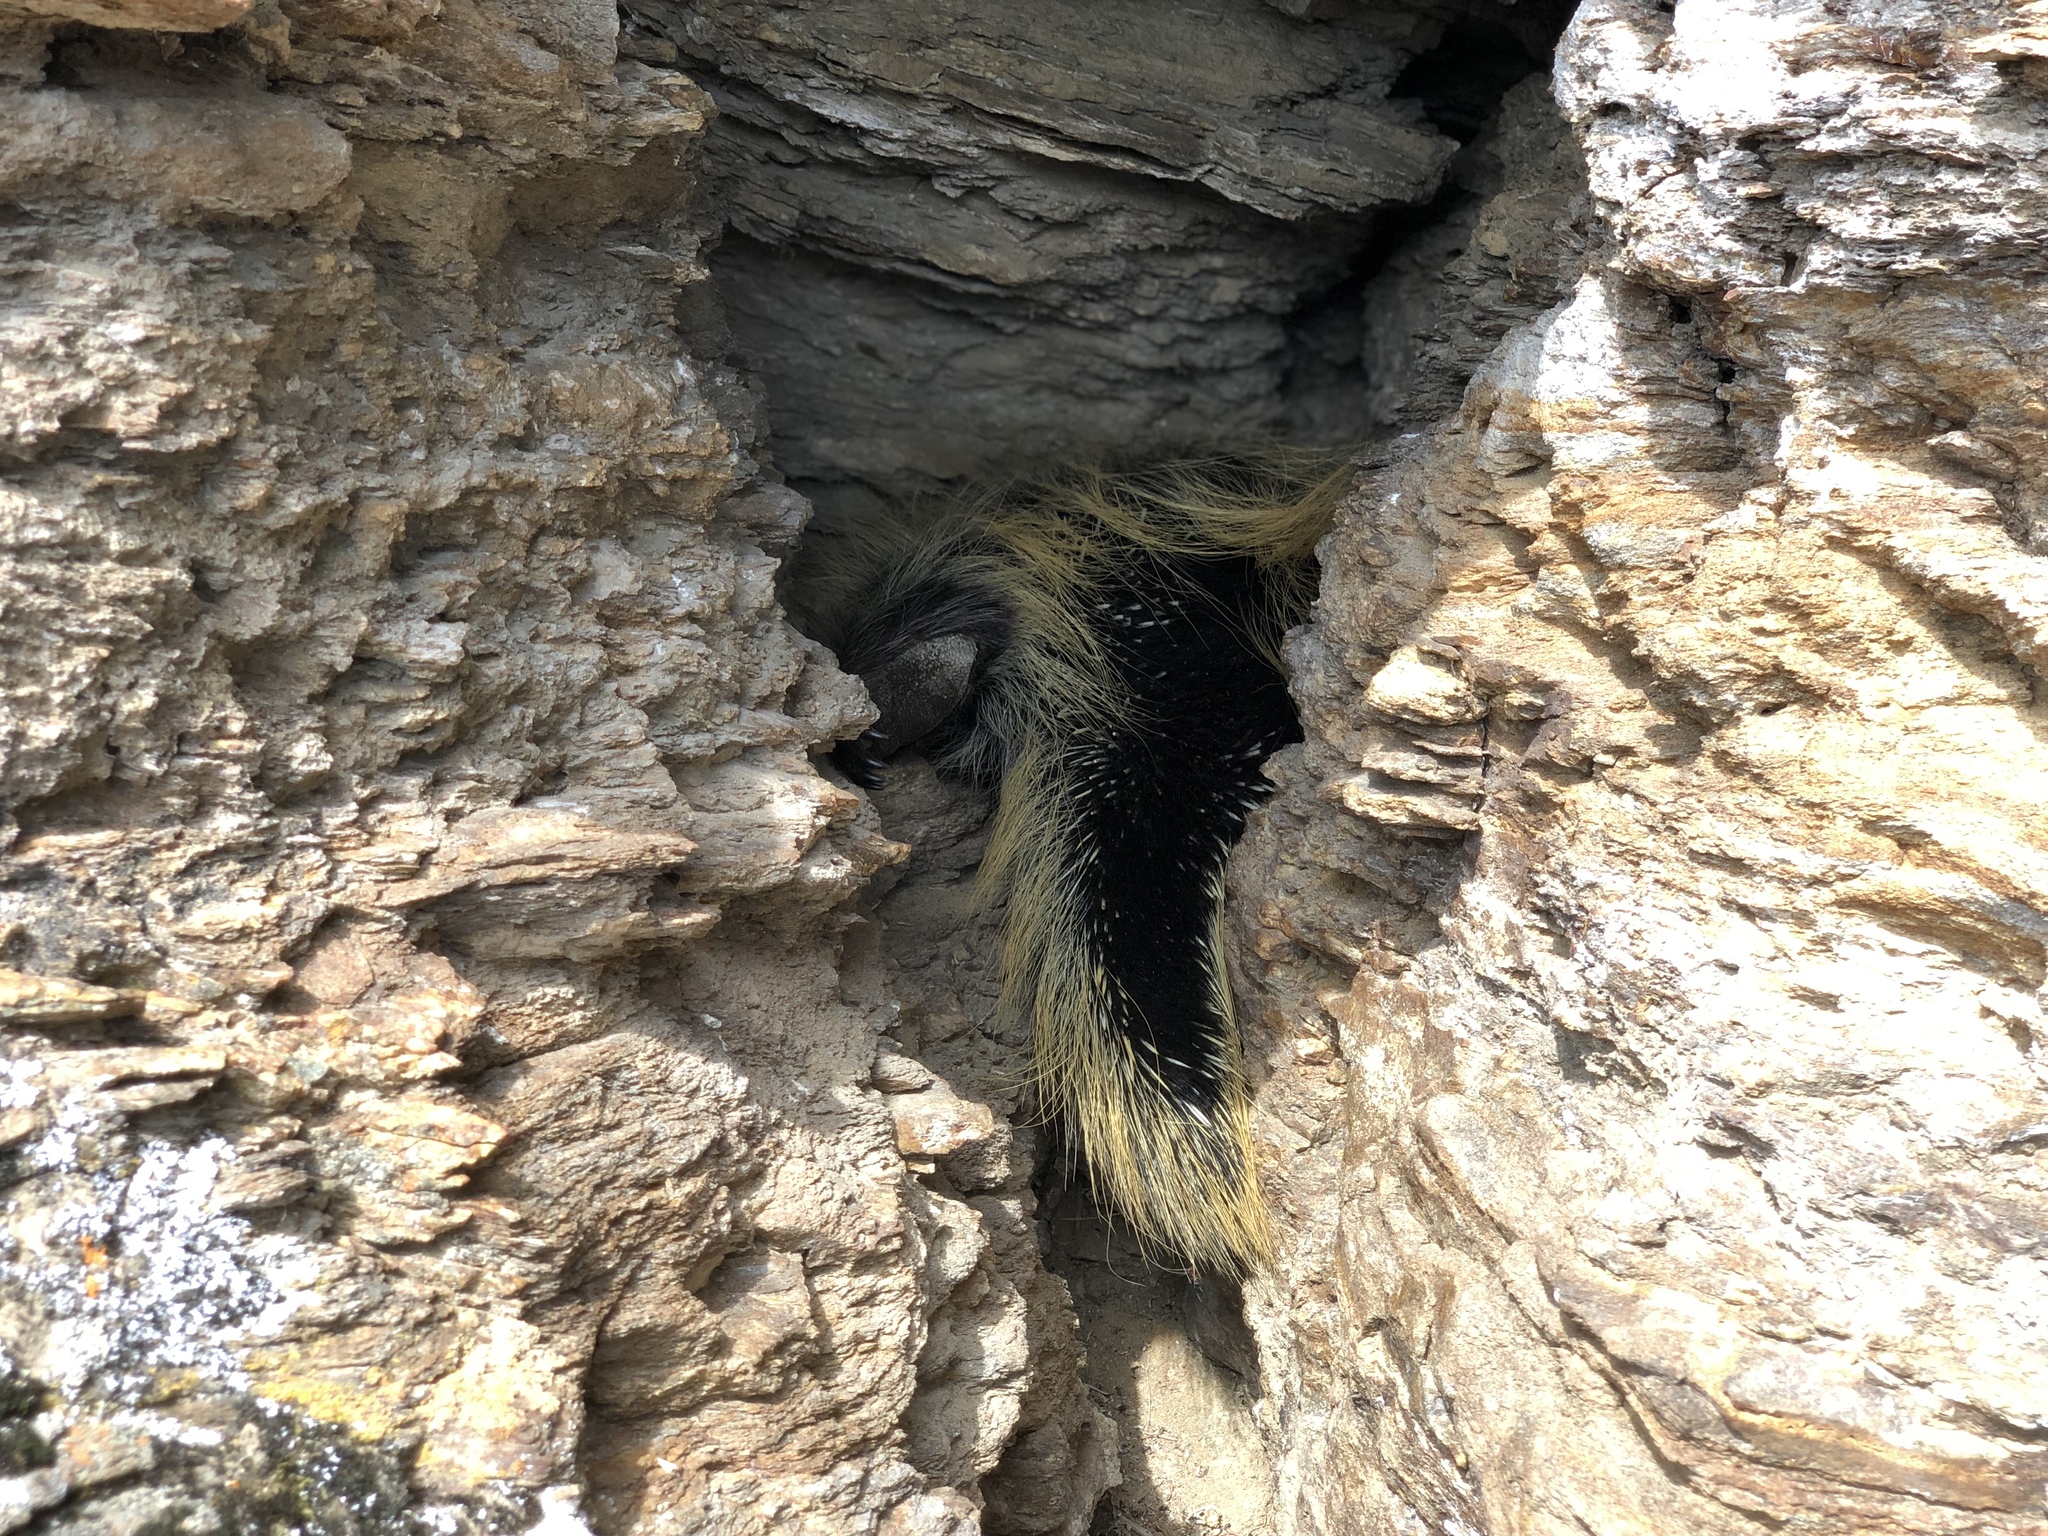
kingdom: Animalia
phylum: Chordata
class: Mammalia
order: Rodentia
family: Erethizontidae
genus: Erethizon
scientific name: Erethizon dorsatus
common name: North american porcupine
